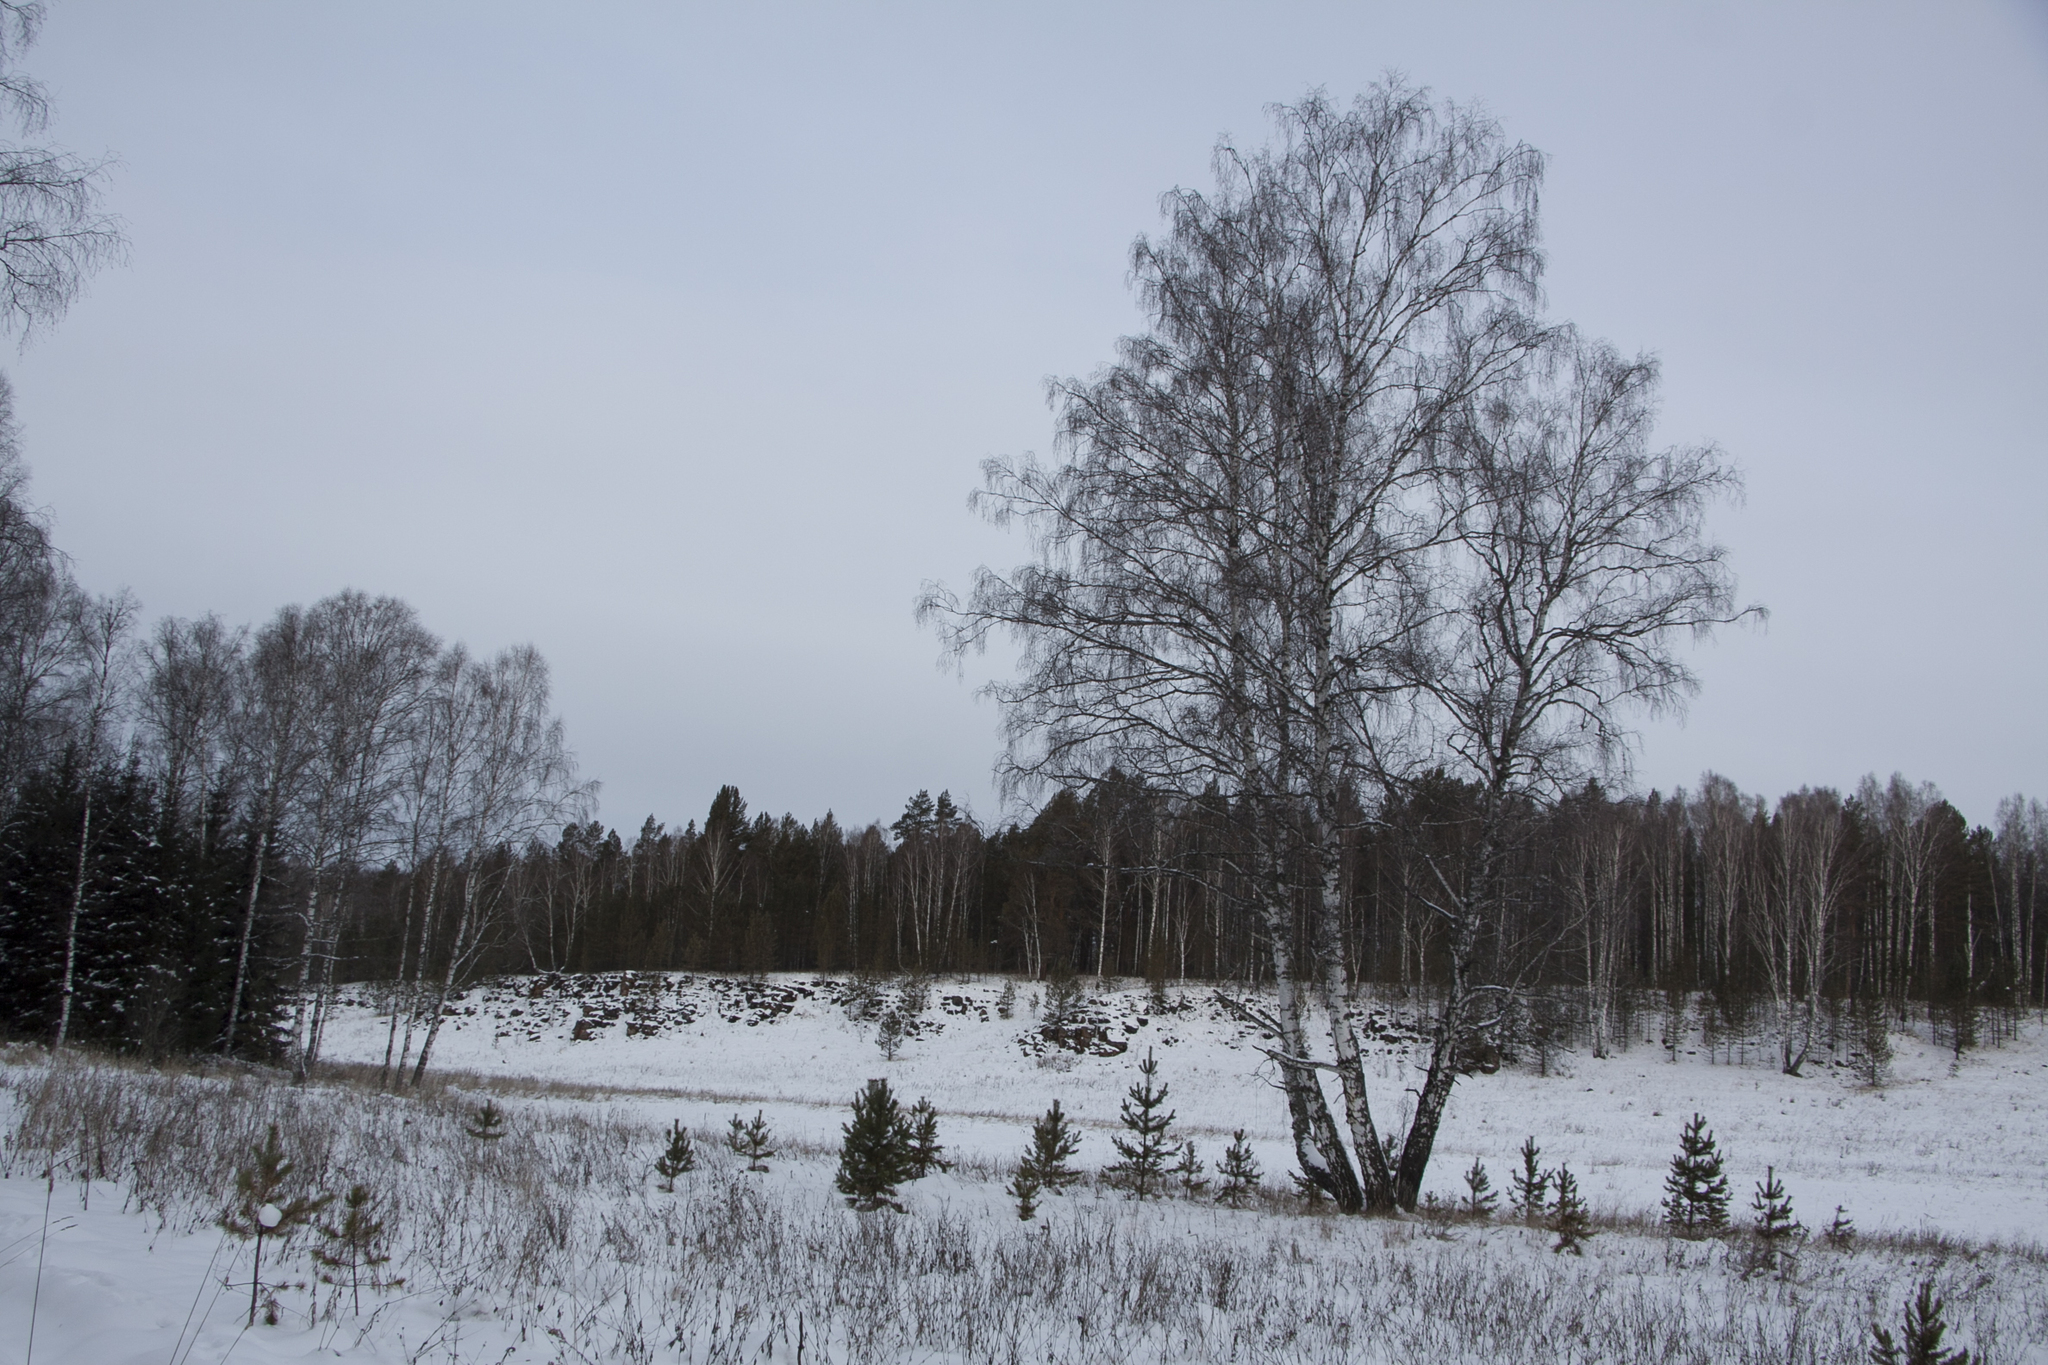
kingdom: Plantae
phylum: Tracheophyta
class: Magnoliopsida
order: Fagales
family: Betulaceae
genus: Betula
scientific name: Betula pendula
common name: Silver birch
